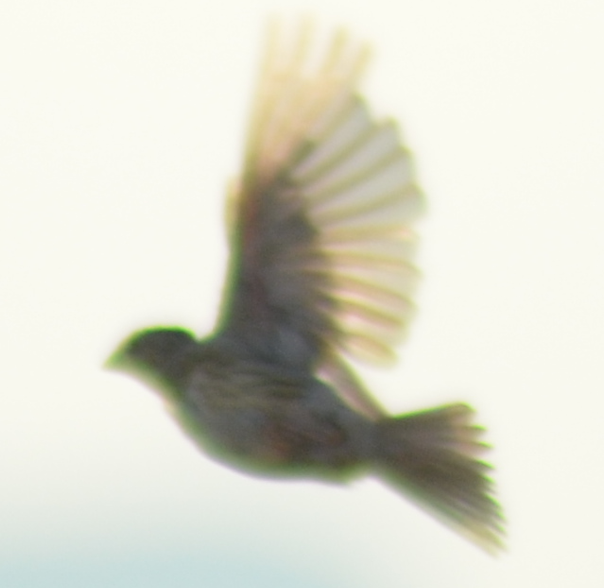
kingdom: Animalia
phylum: Chordata
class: Aves
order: Passeriformes
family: Emberizidae
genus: Emberiza
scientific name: Emberiza calandra
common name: Corn bunting
